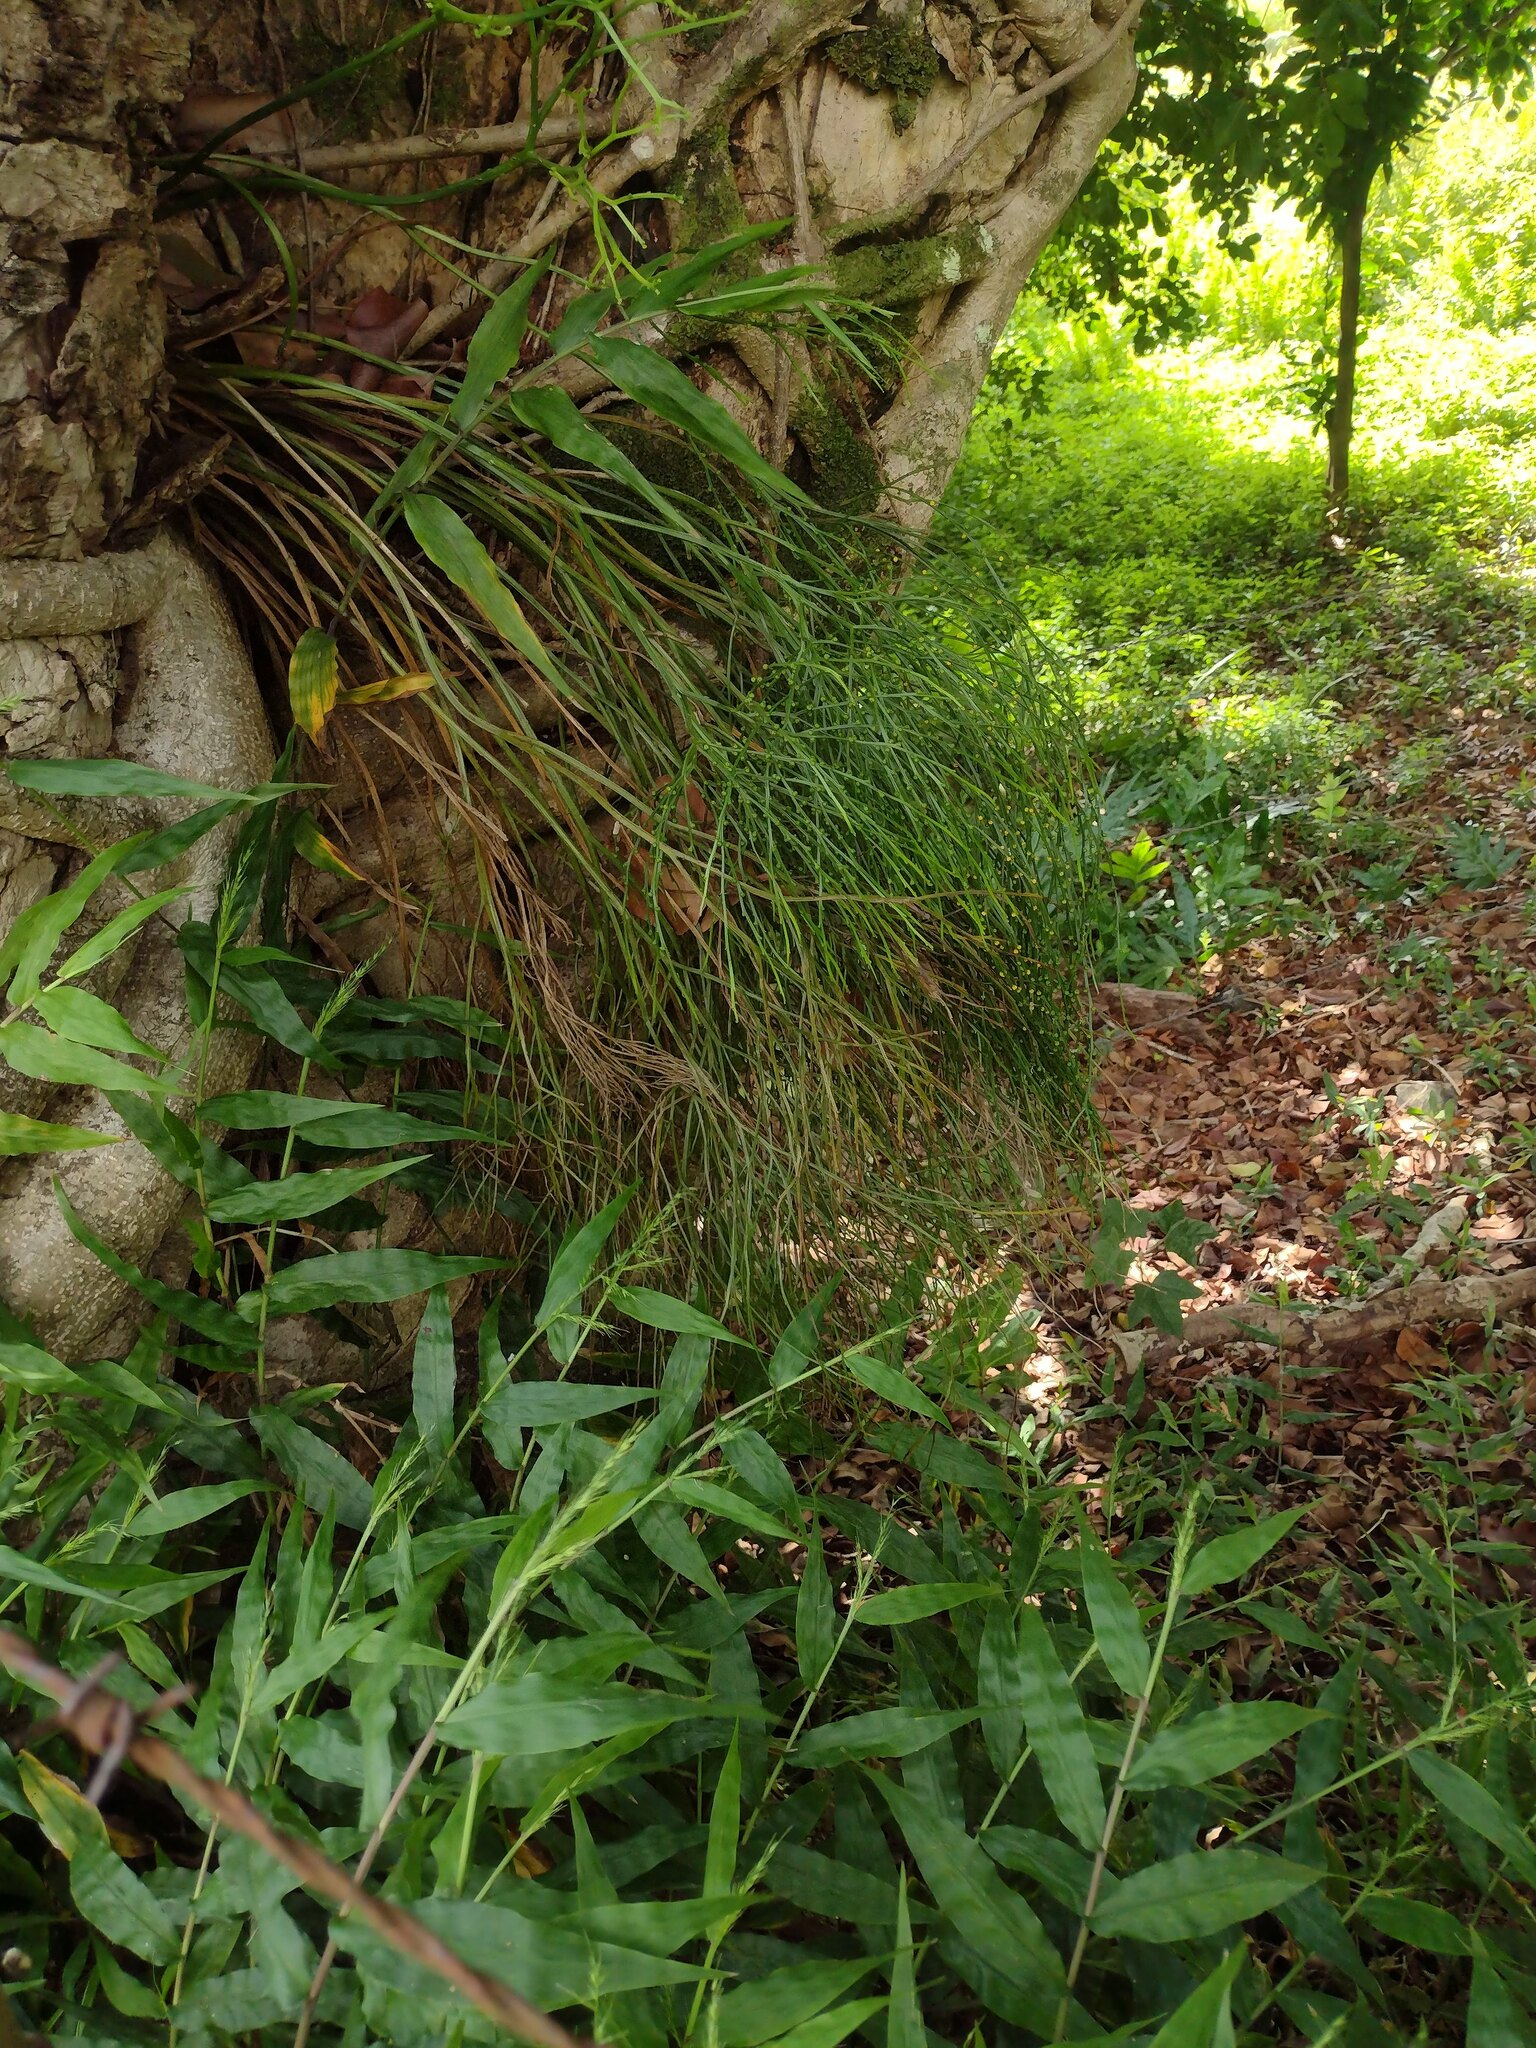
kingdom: Plantae
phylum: Tracheophyta
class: Polypodiopsida
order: Psilotales
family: Psilotaceae
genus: Psilotum
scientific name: Psilotum nudum
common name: Skeleton fork fern
